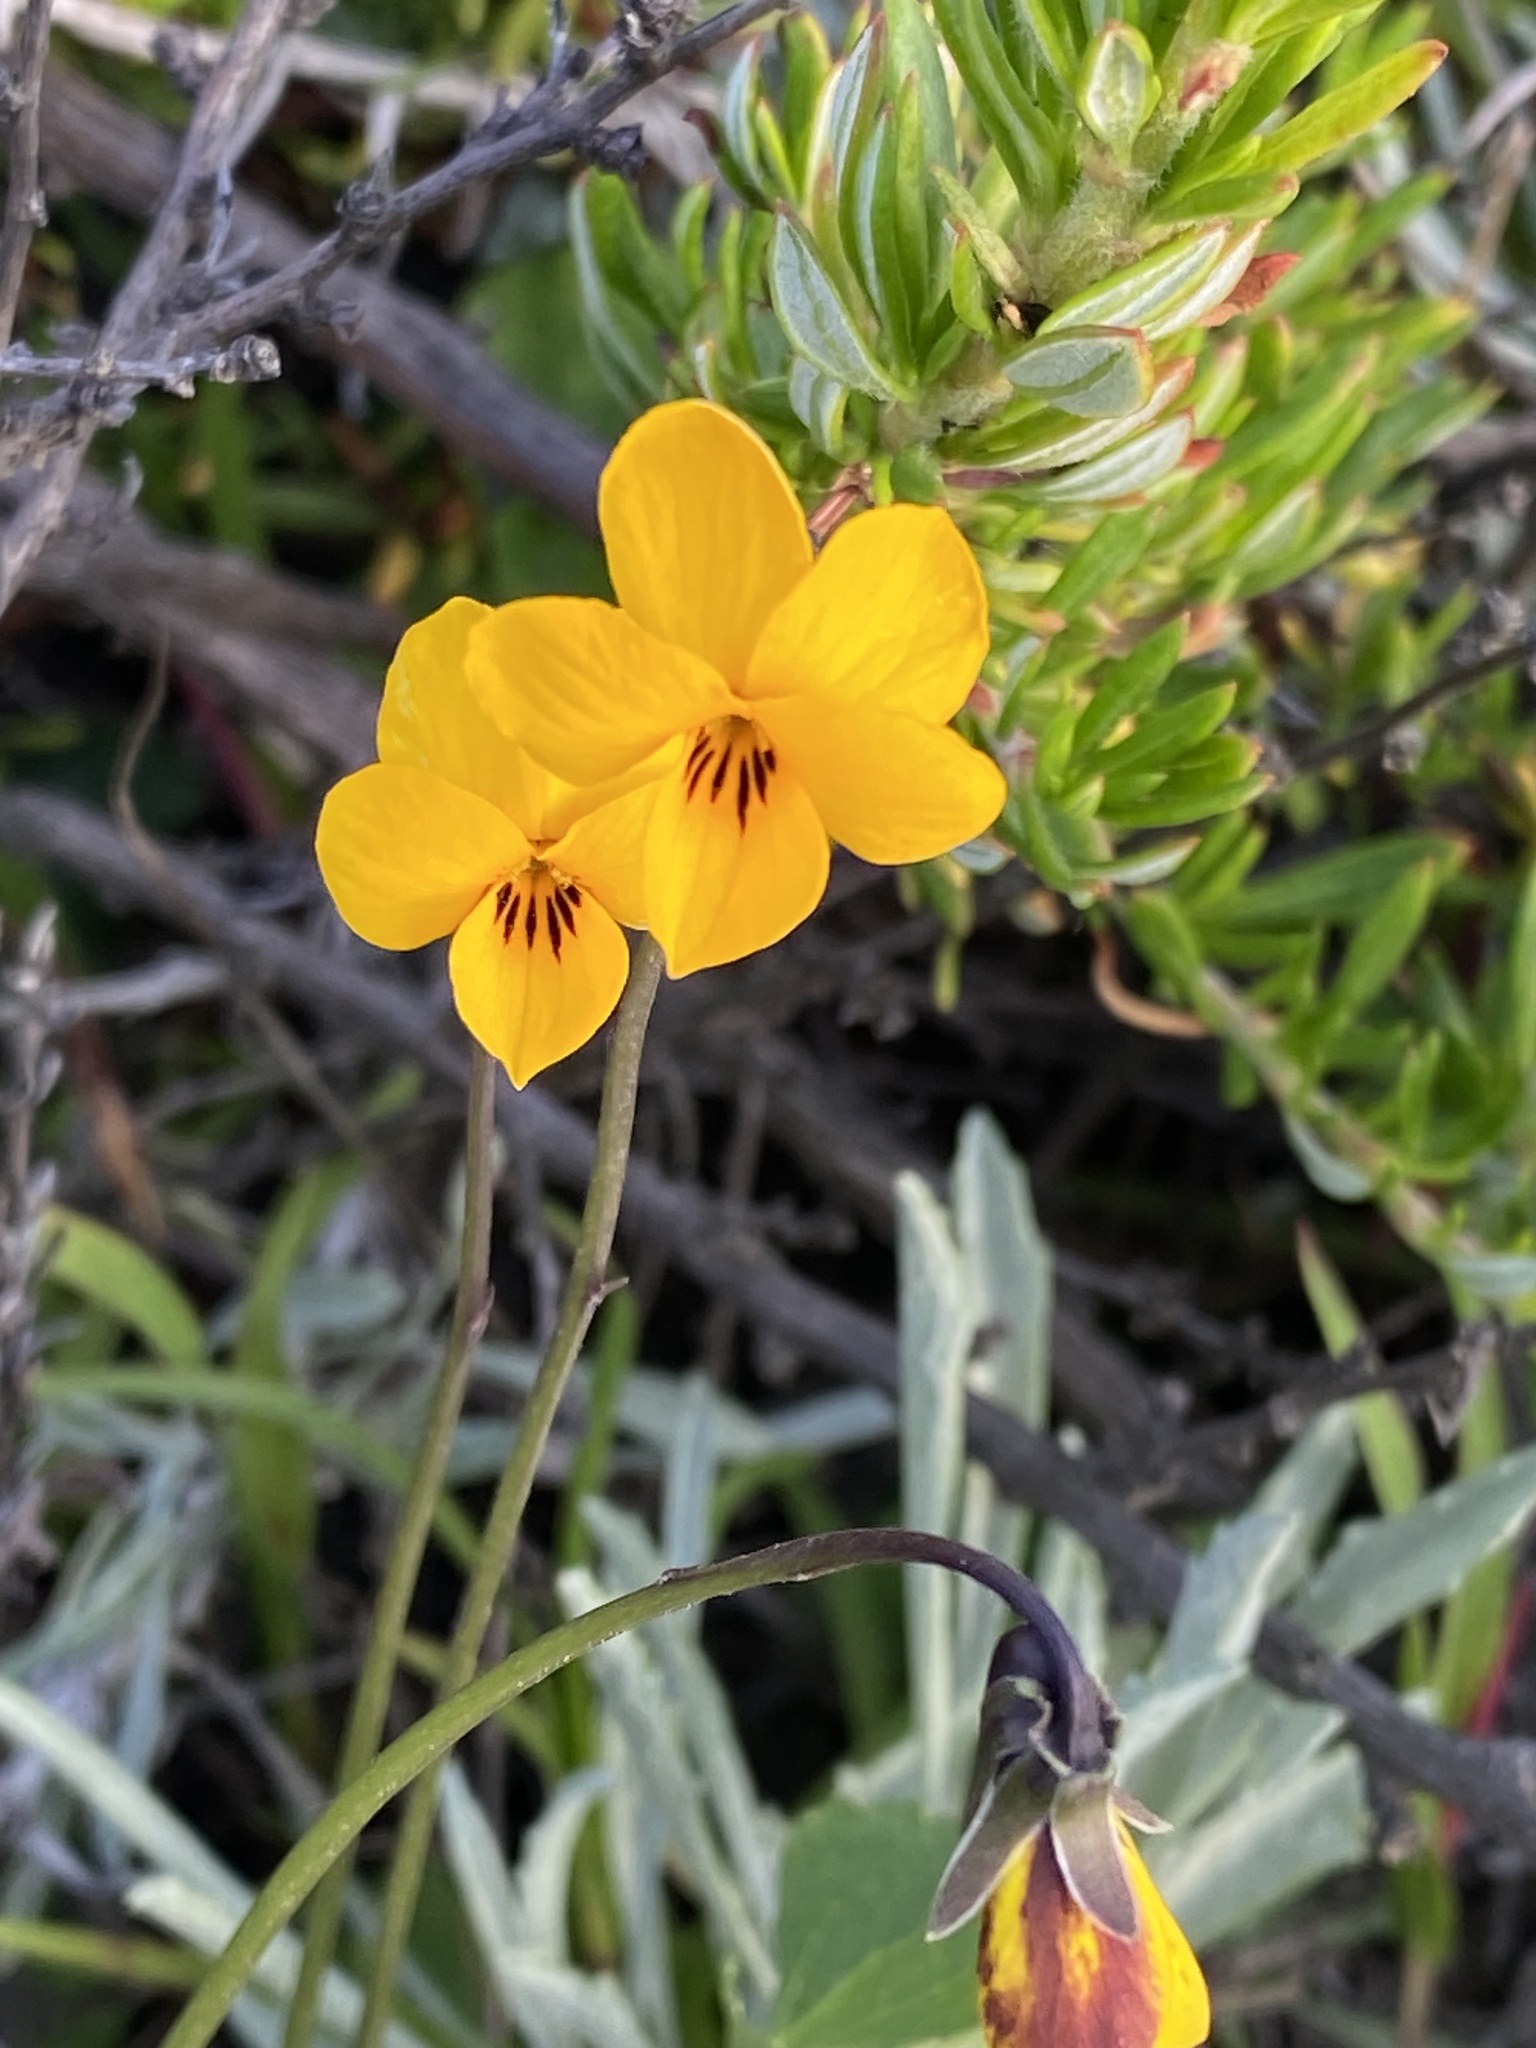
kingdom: Plantae
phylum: Tracheophyta
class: Magnoliopsida
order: Malpighiales
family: Violaceae
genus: Viola
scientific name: Viola pedunculata
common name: California golden violet
